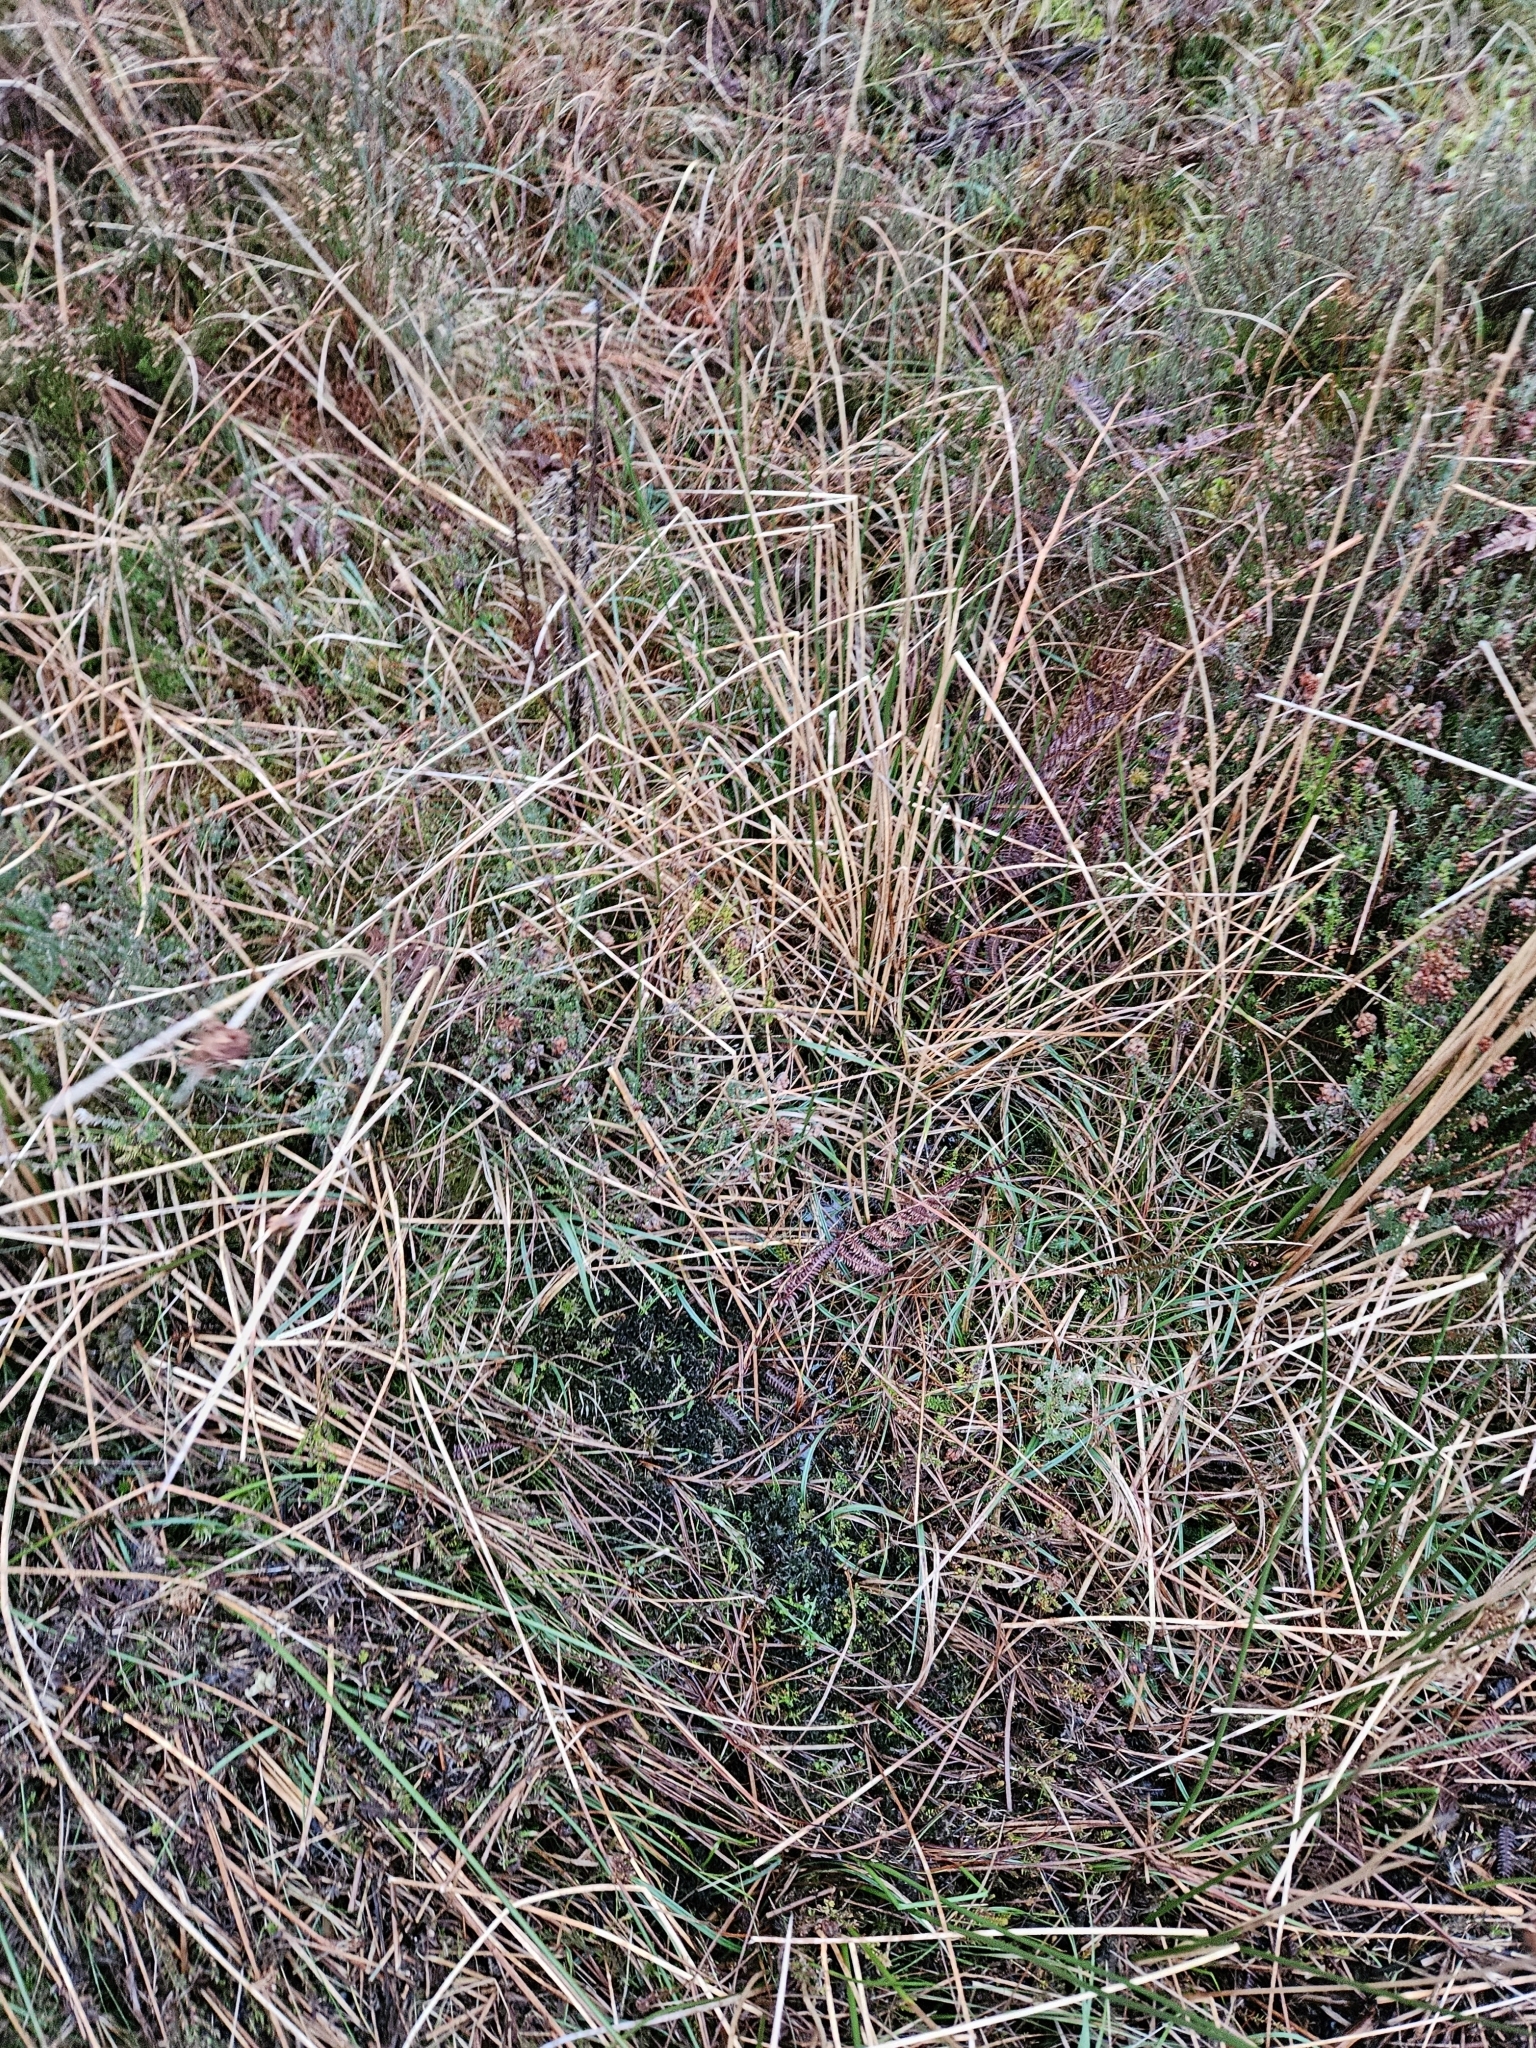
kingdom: Plantae
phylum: Bryophyta
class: Sphagnopsida
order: Sphagnales
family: Sphagnaceae
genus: Sphagnum
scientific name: Sphagnum subnitens
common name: Lustrous bog-moss
